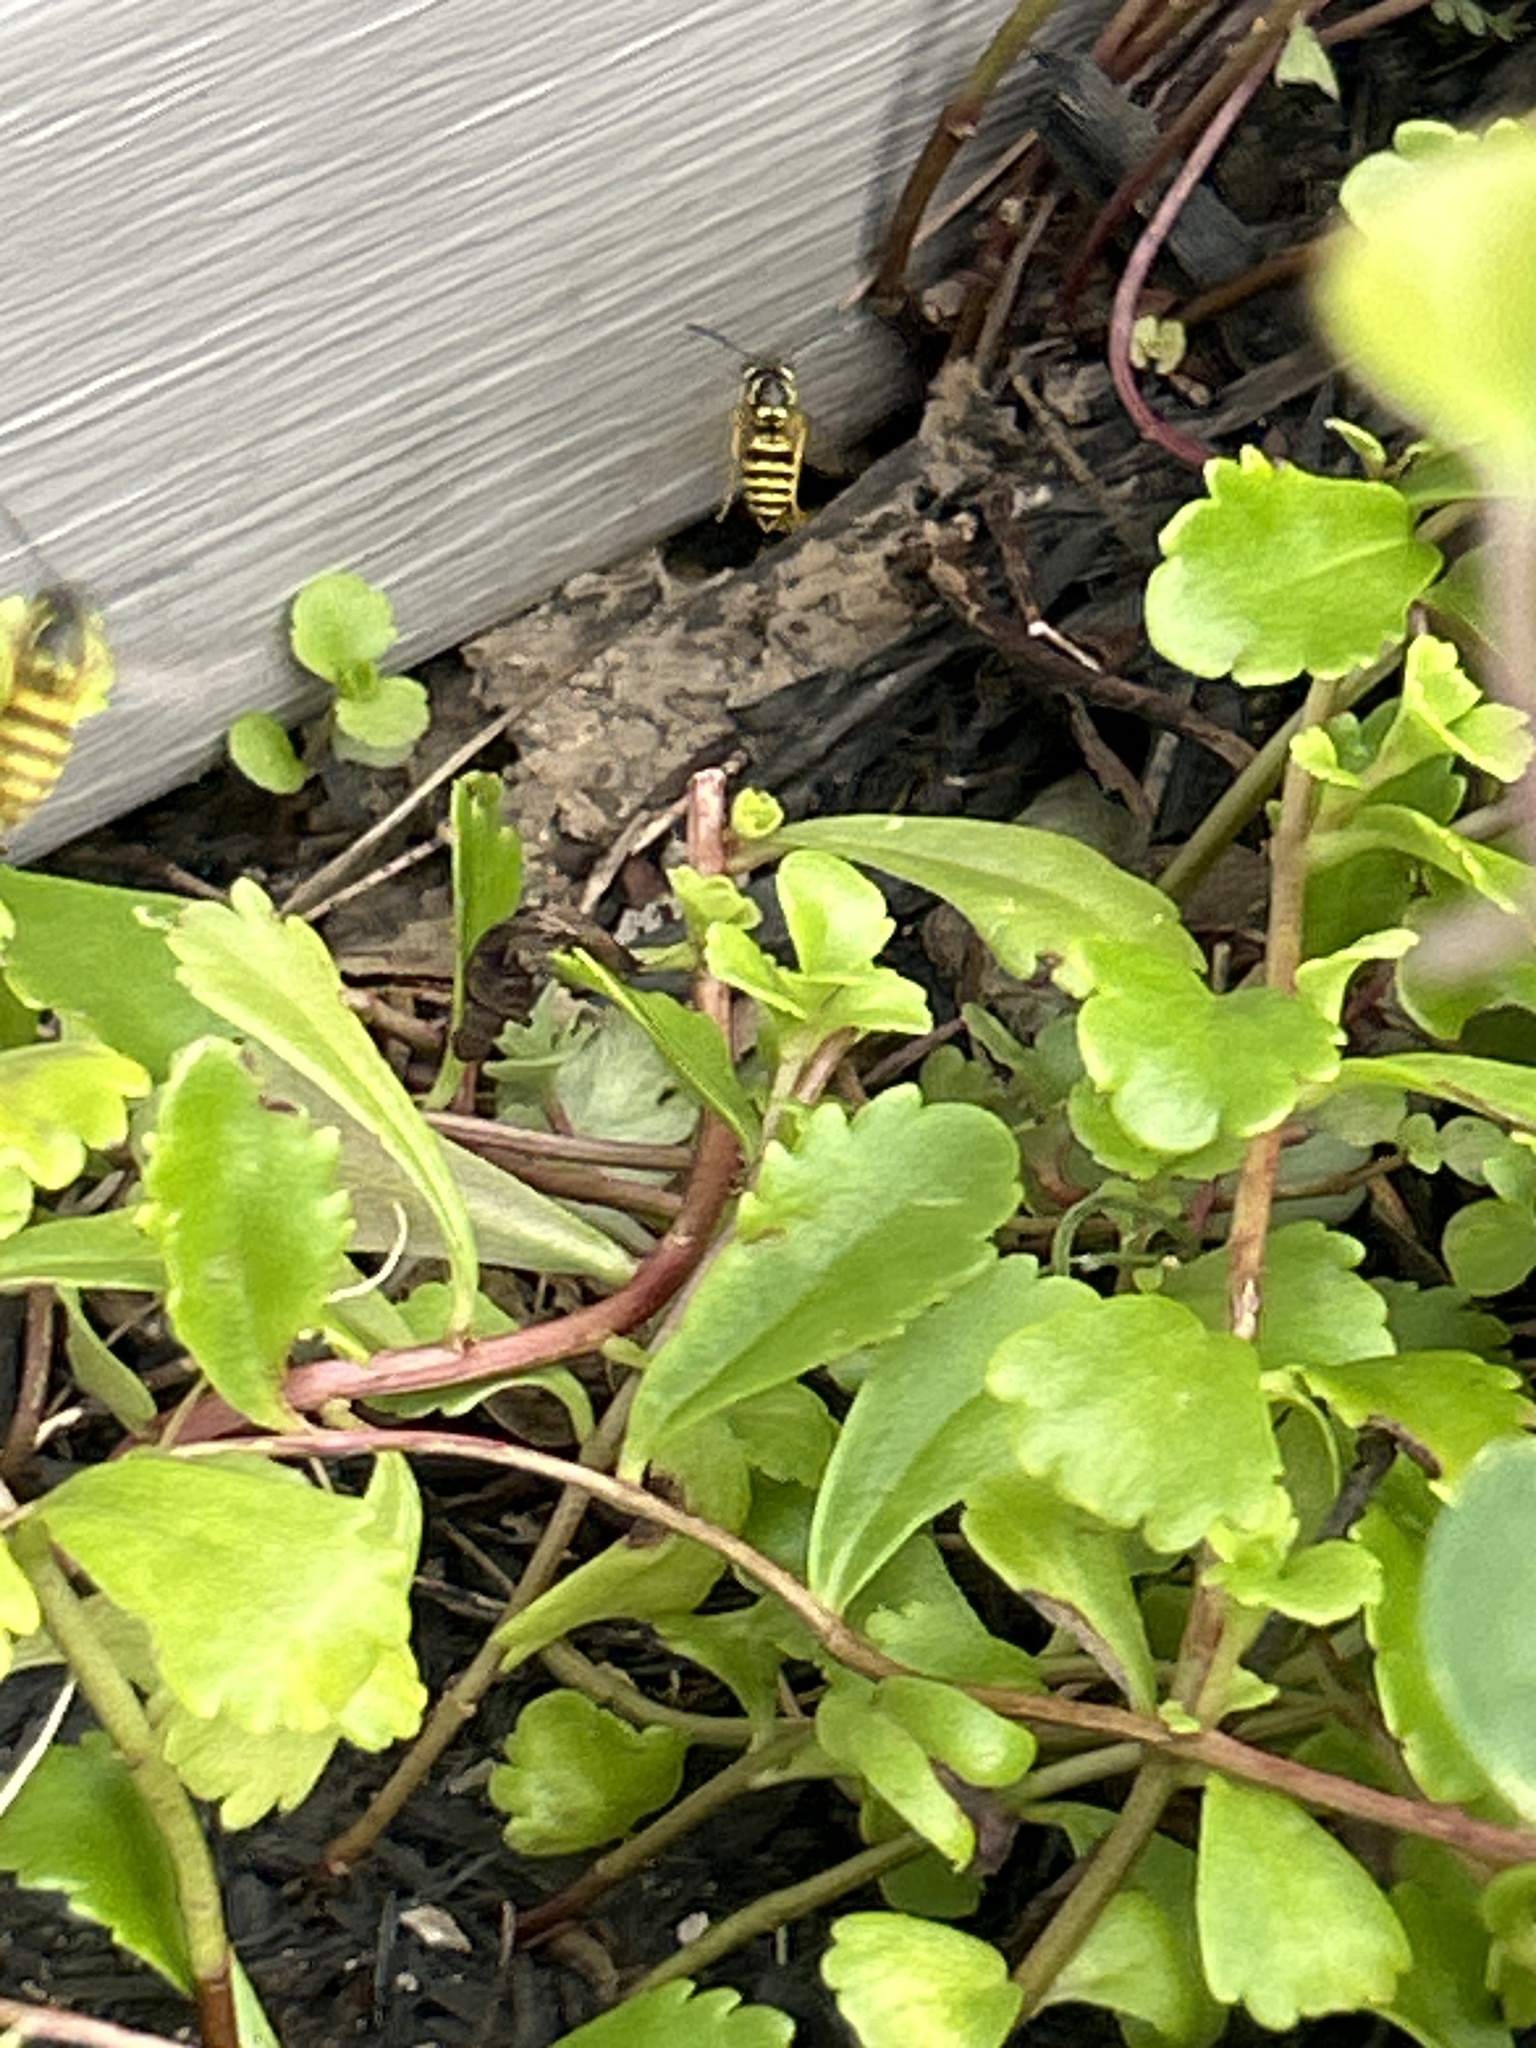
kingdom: Animalia
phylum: Arthropoda
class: Insecta
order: Hymenoptera
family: Vespidae
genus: Vespula
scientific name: Vespula maculifrons
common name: Eastern yellowjacket
